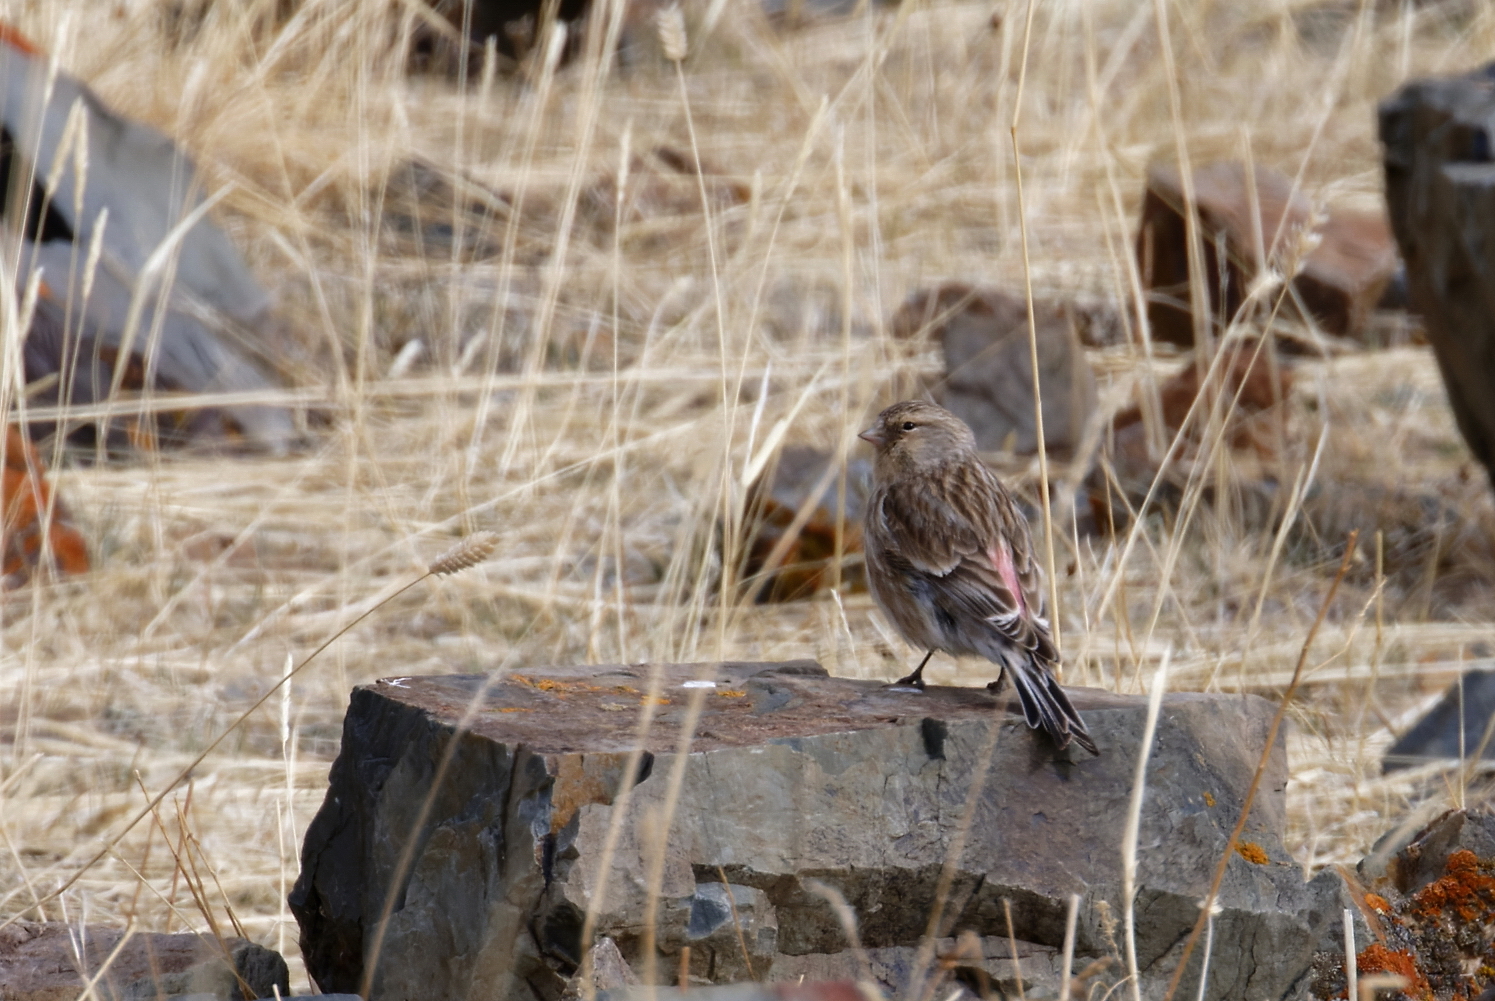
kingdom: Animalia
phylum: Chordata
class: Aves
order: Passeriformes
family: Fringillidae
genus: Linaria
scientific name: Linaria flavirostris
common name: Twite
